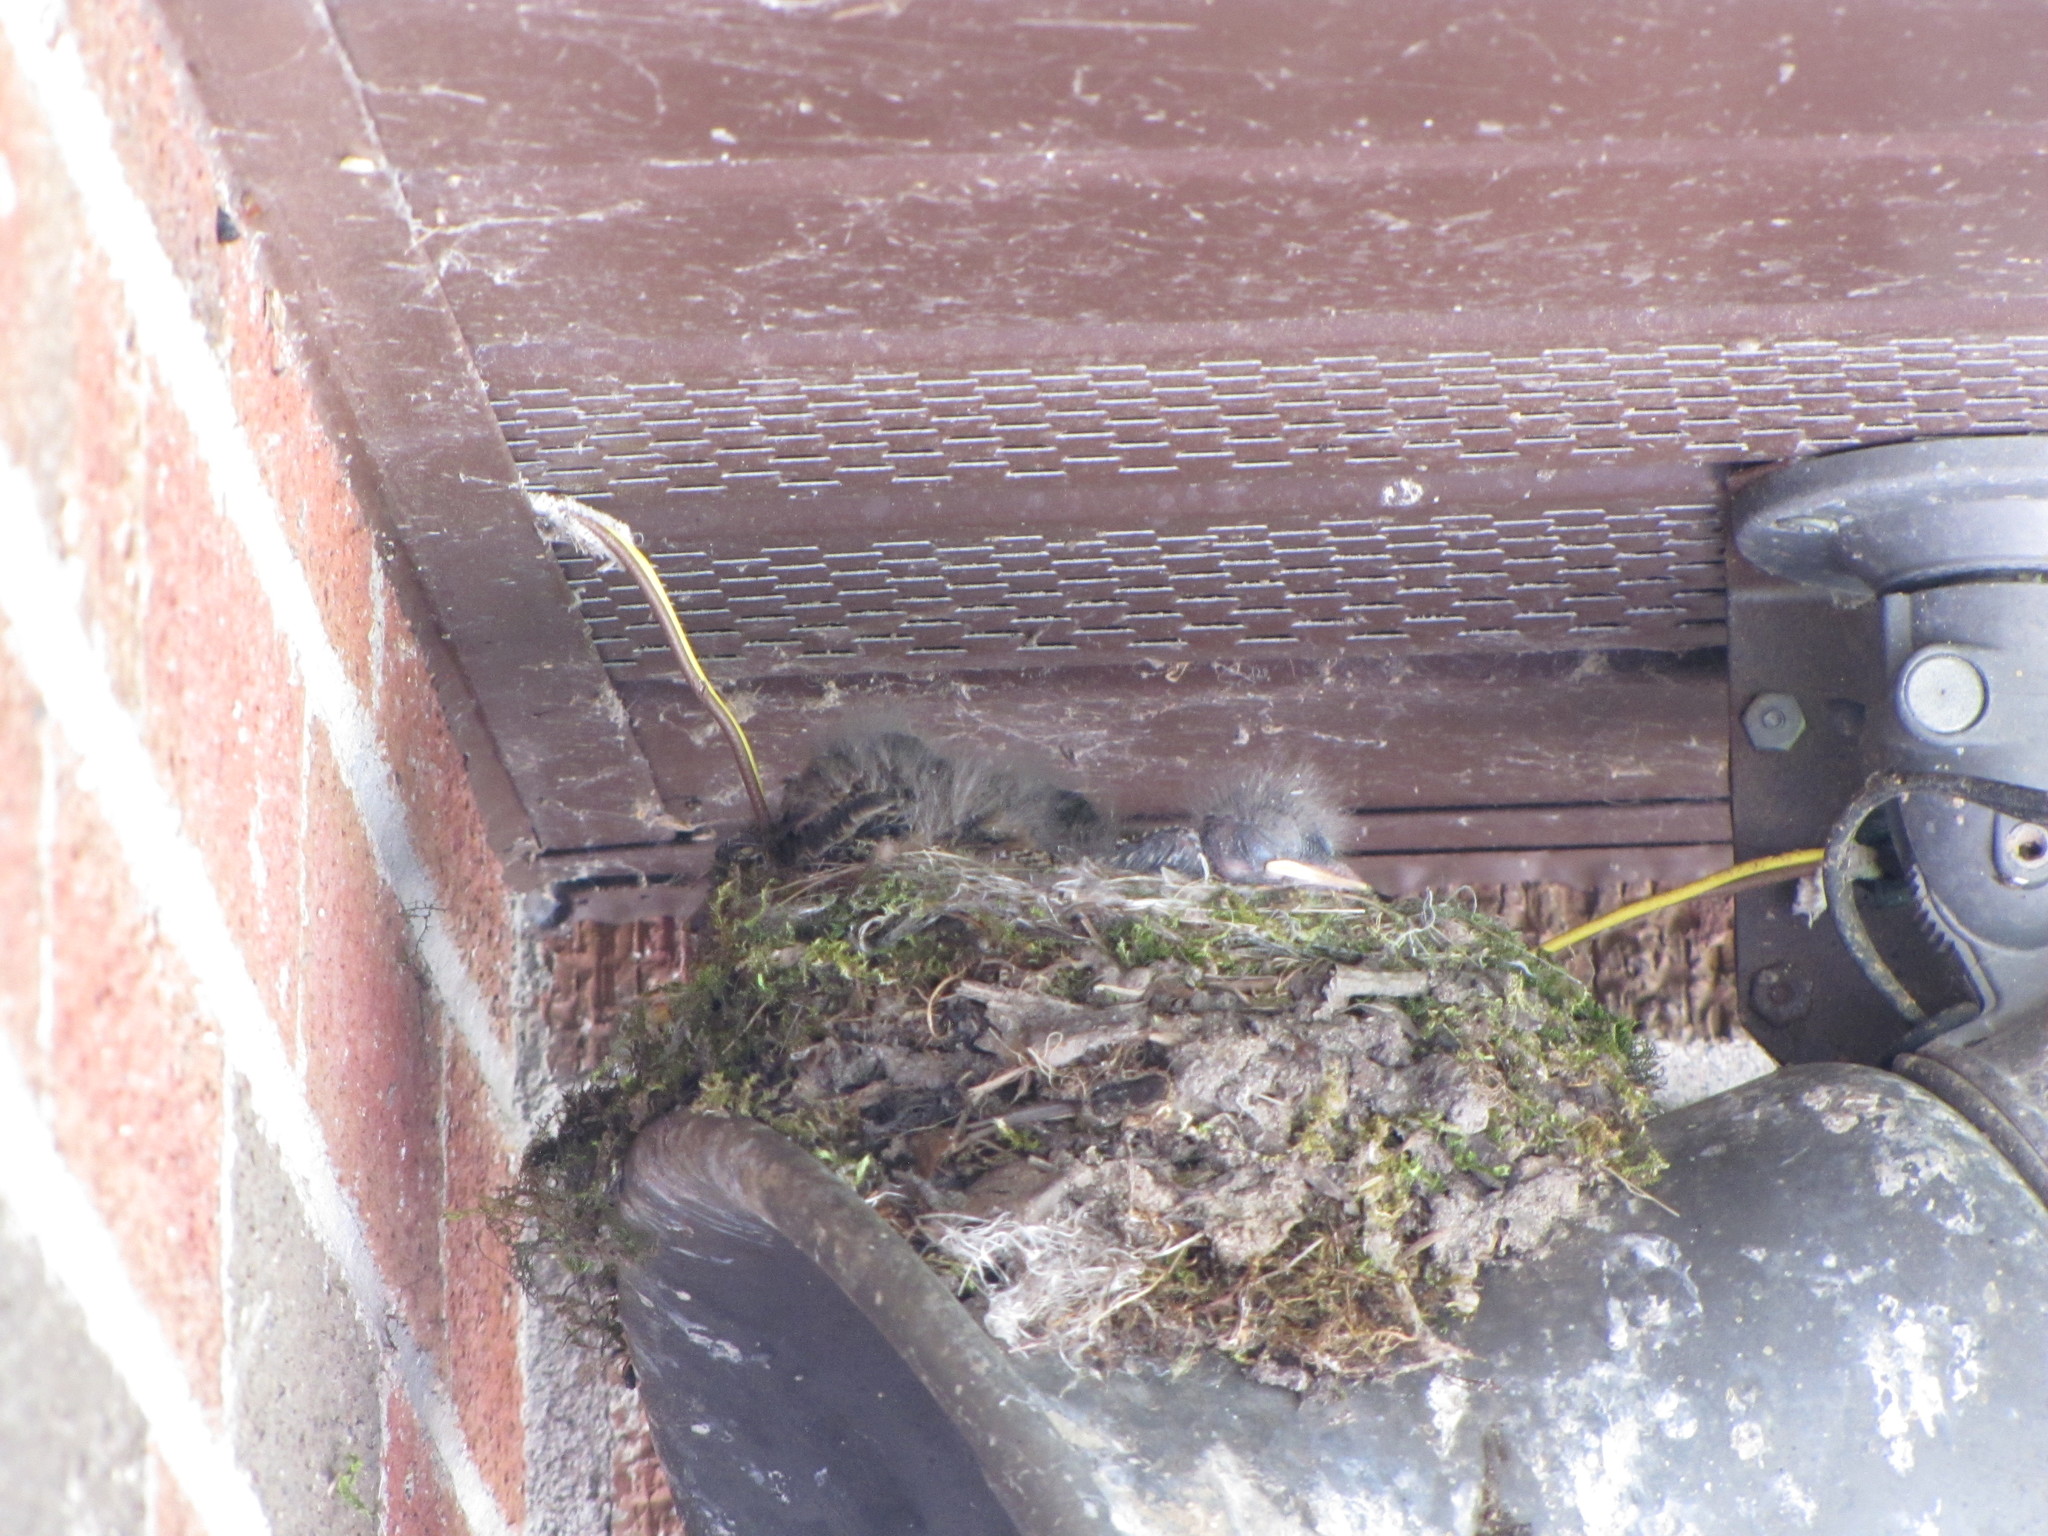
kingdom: Animalia
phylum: Chordata
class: Aves
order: Passeriformes
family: Tyrannidae
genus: Sayornis
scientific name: Sayornis phoebe
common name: Eastern phoebe
